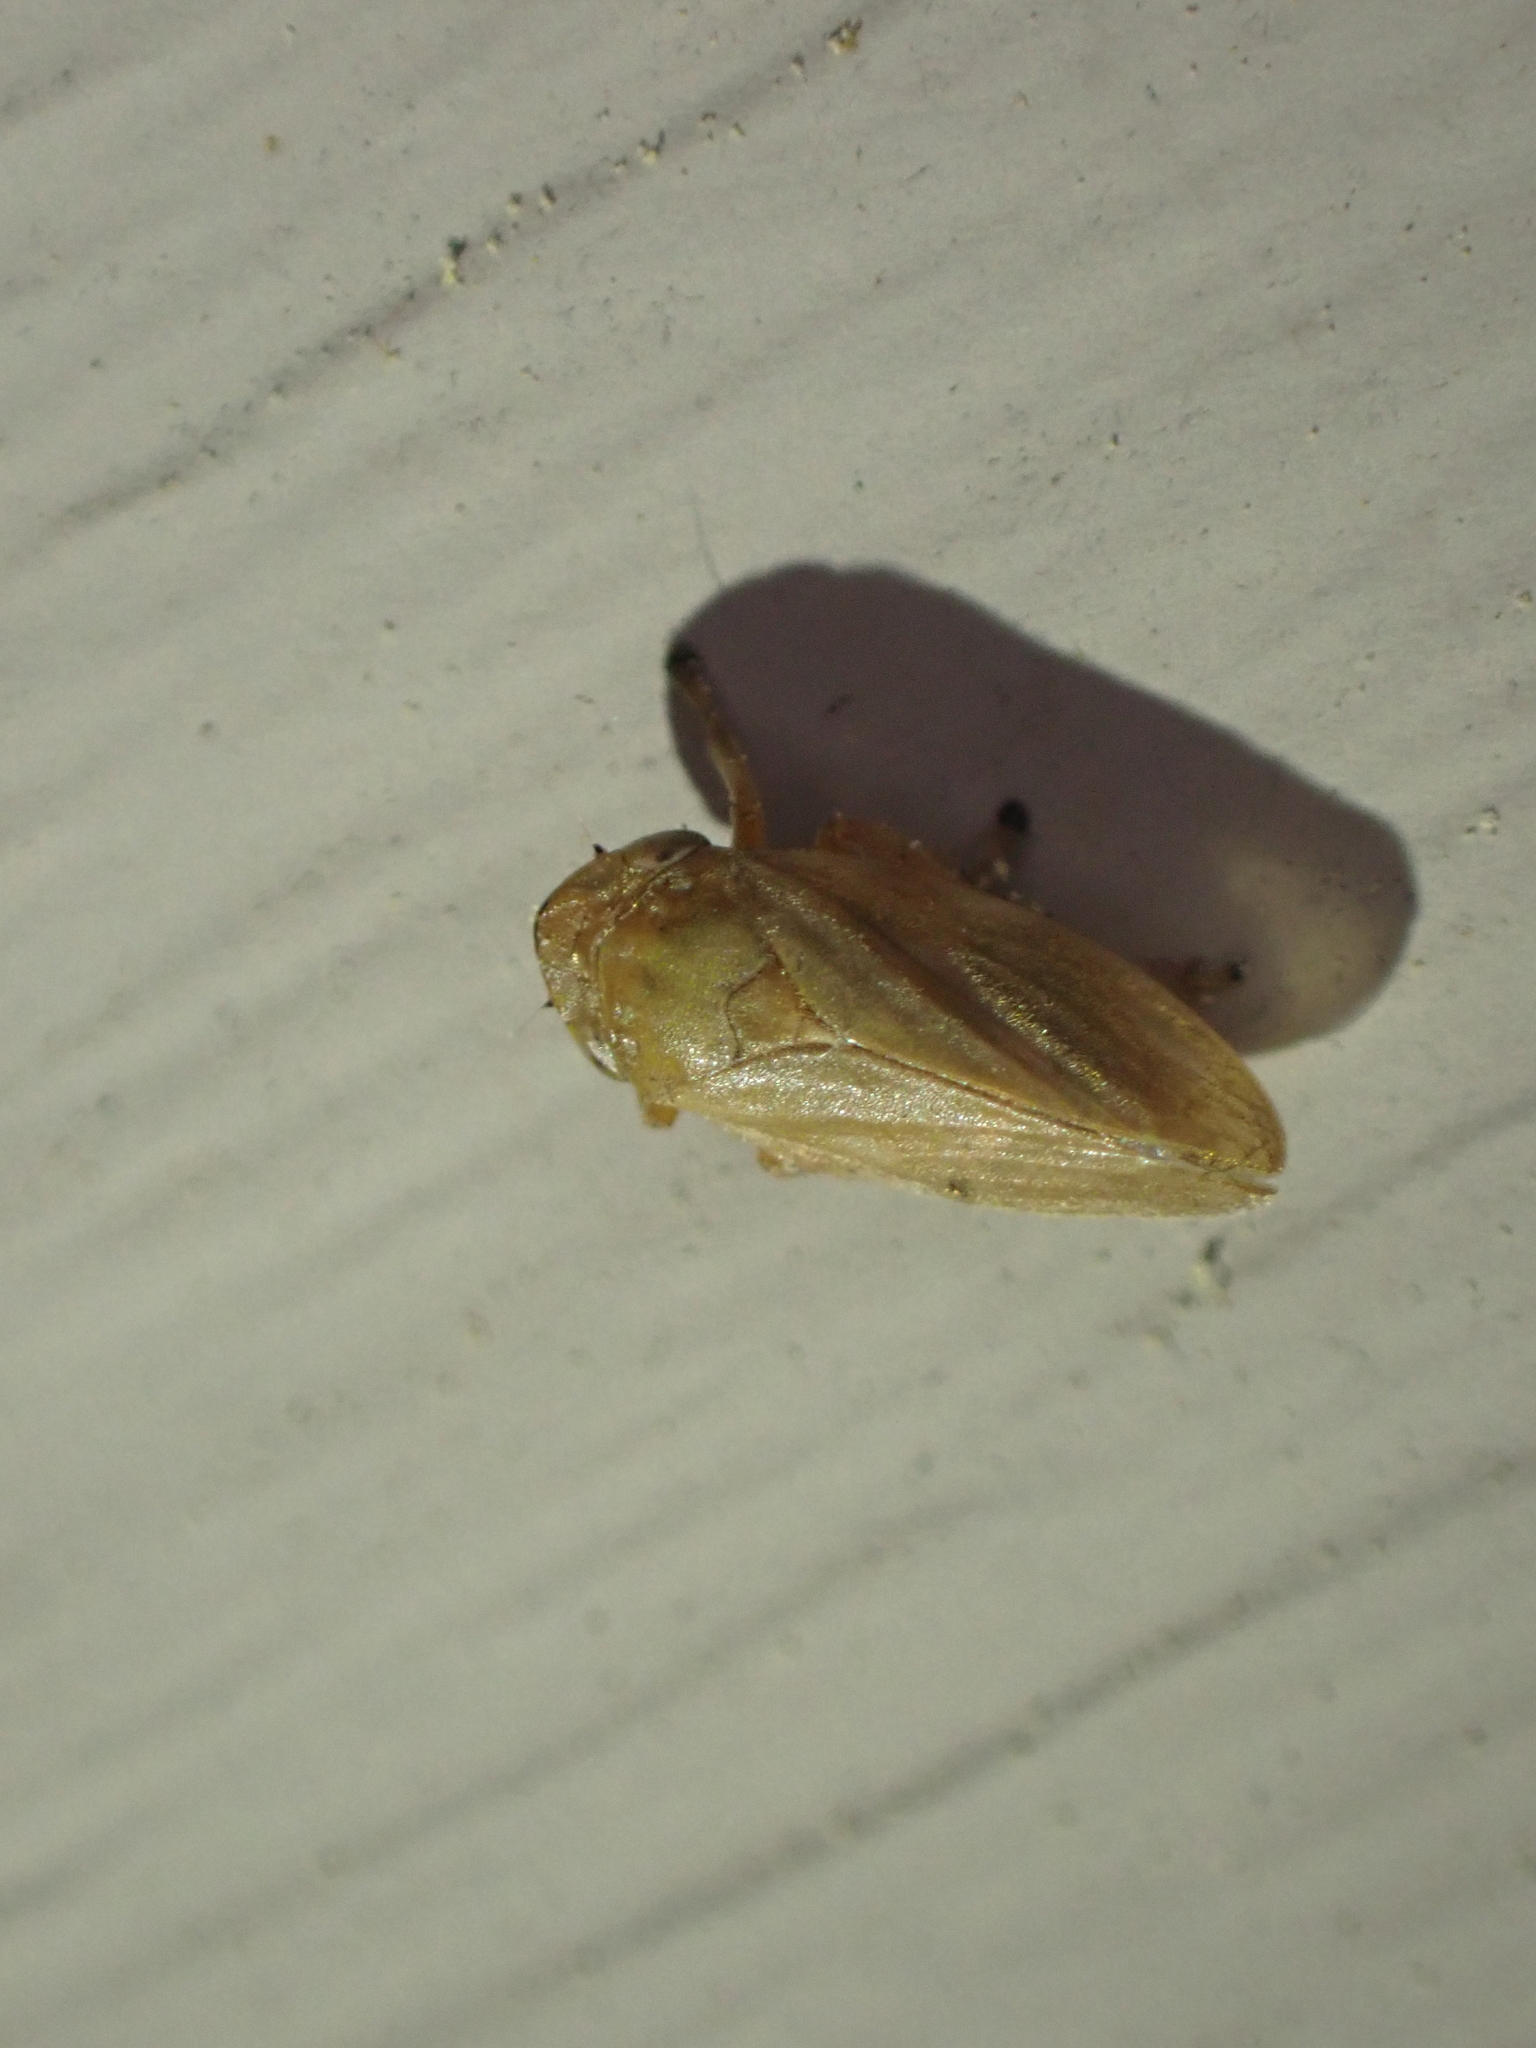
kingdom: Animalia
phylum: Arthropoda
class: Insecta
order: Hemiptera
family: Aphrophoridae
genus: Philaenus
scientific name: Philaenus spumarius
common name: Meadow spittlebug
